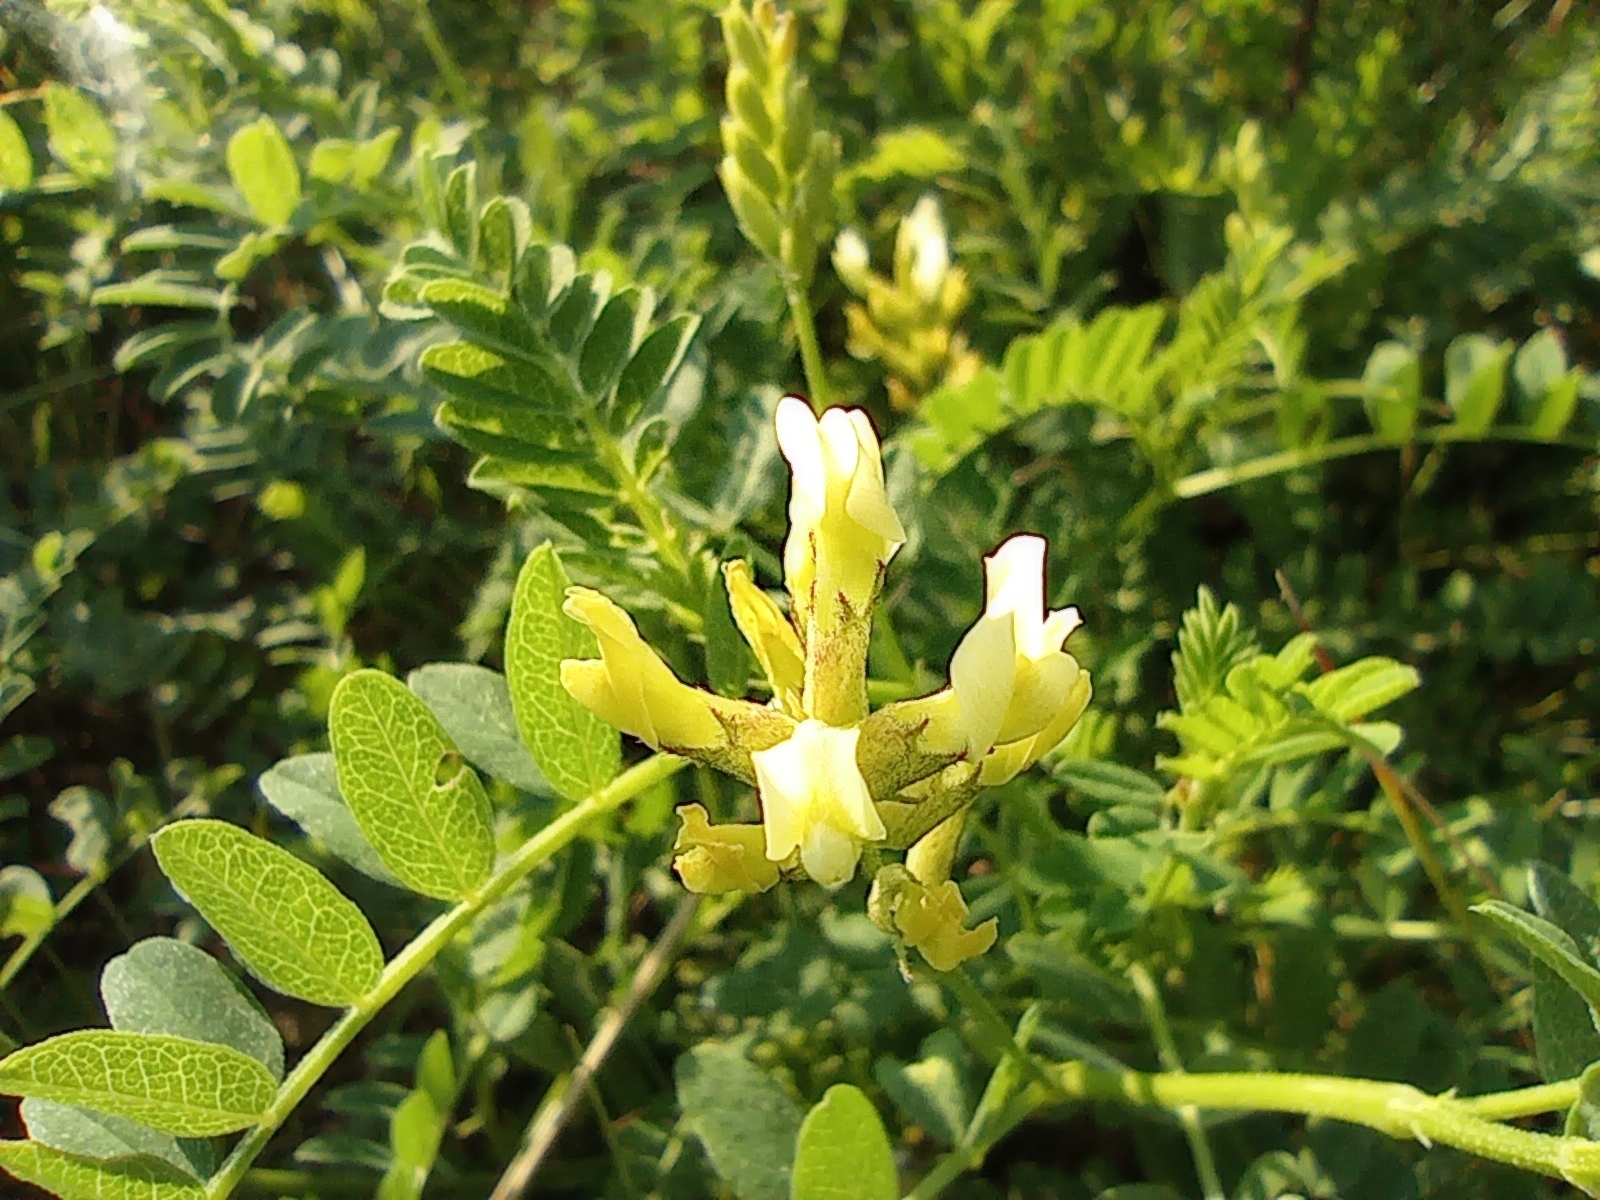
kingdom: Plantae
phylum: Tracheophyta
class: Magnoliopsida
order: Fabales
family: Fabaceae
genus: Astragalus
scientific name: Astragalus cicer
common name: Chick-pea milk-vetch
